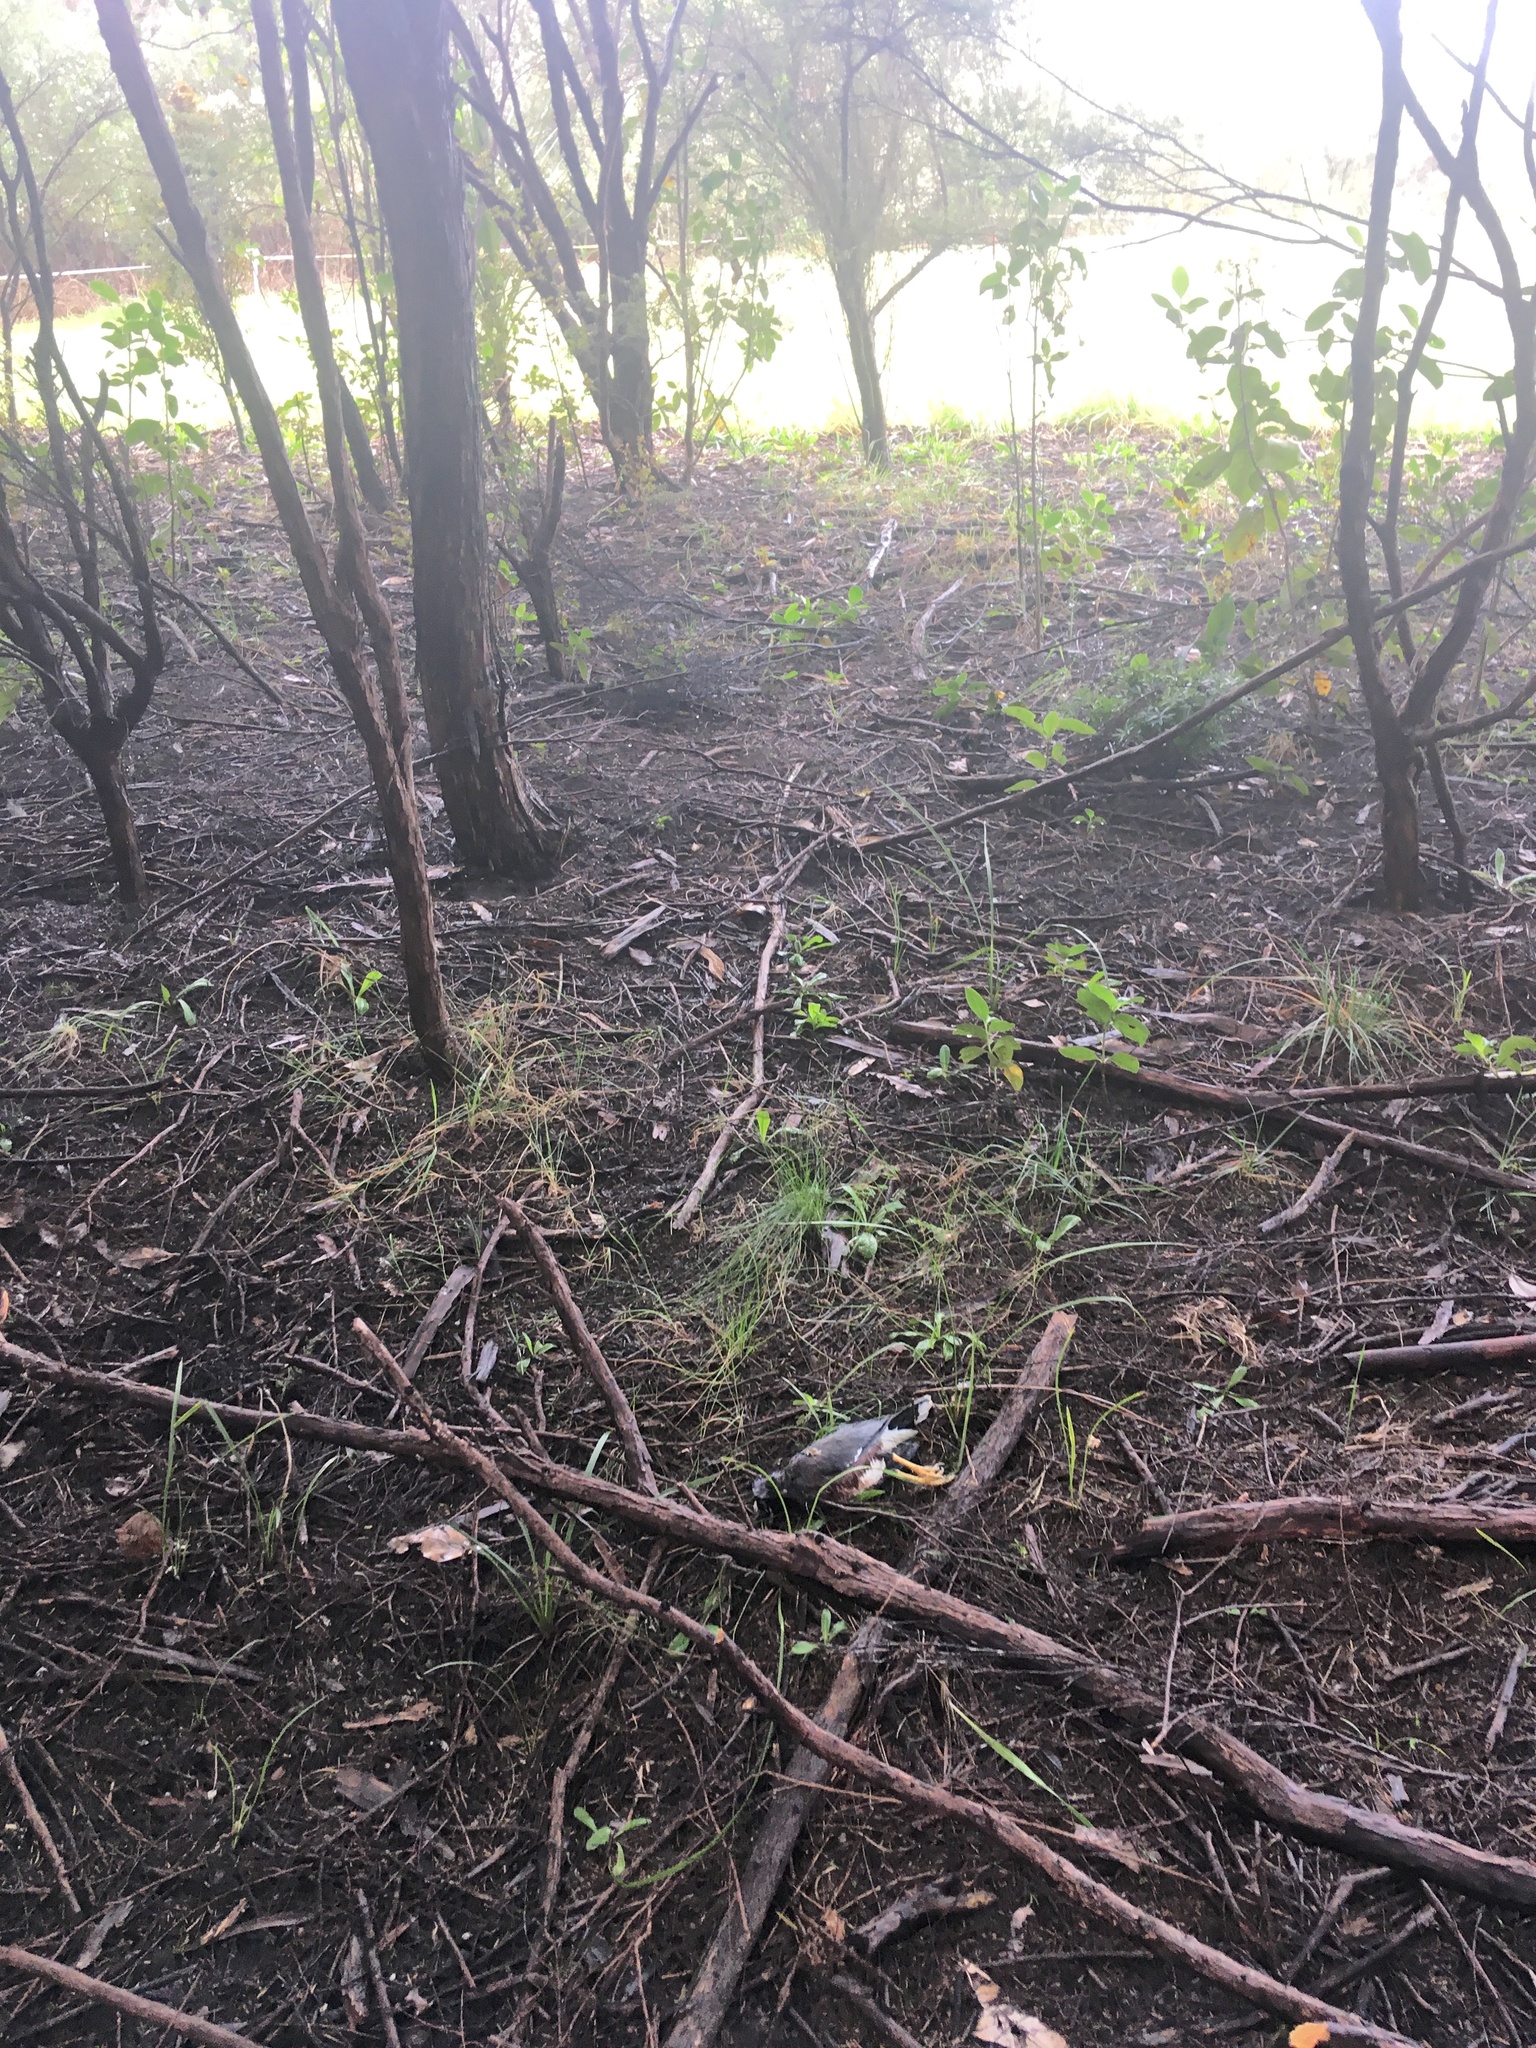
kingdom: Animalia
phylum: Chordata
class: Aves
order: Passeriformes
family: Sturnidae
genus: Acridotheres
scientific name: Acridotheres tristis
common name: Common myna
